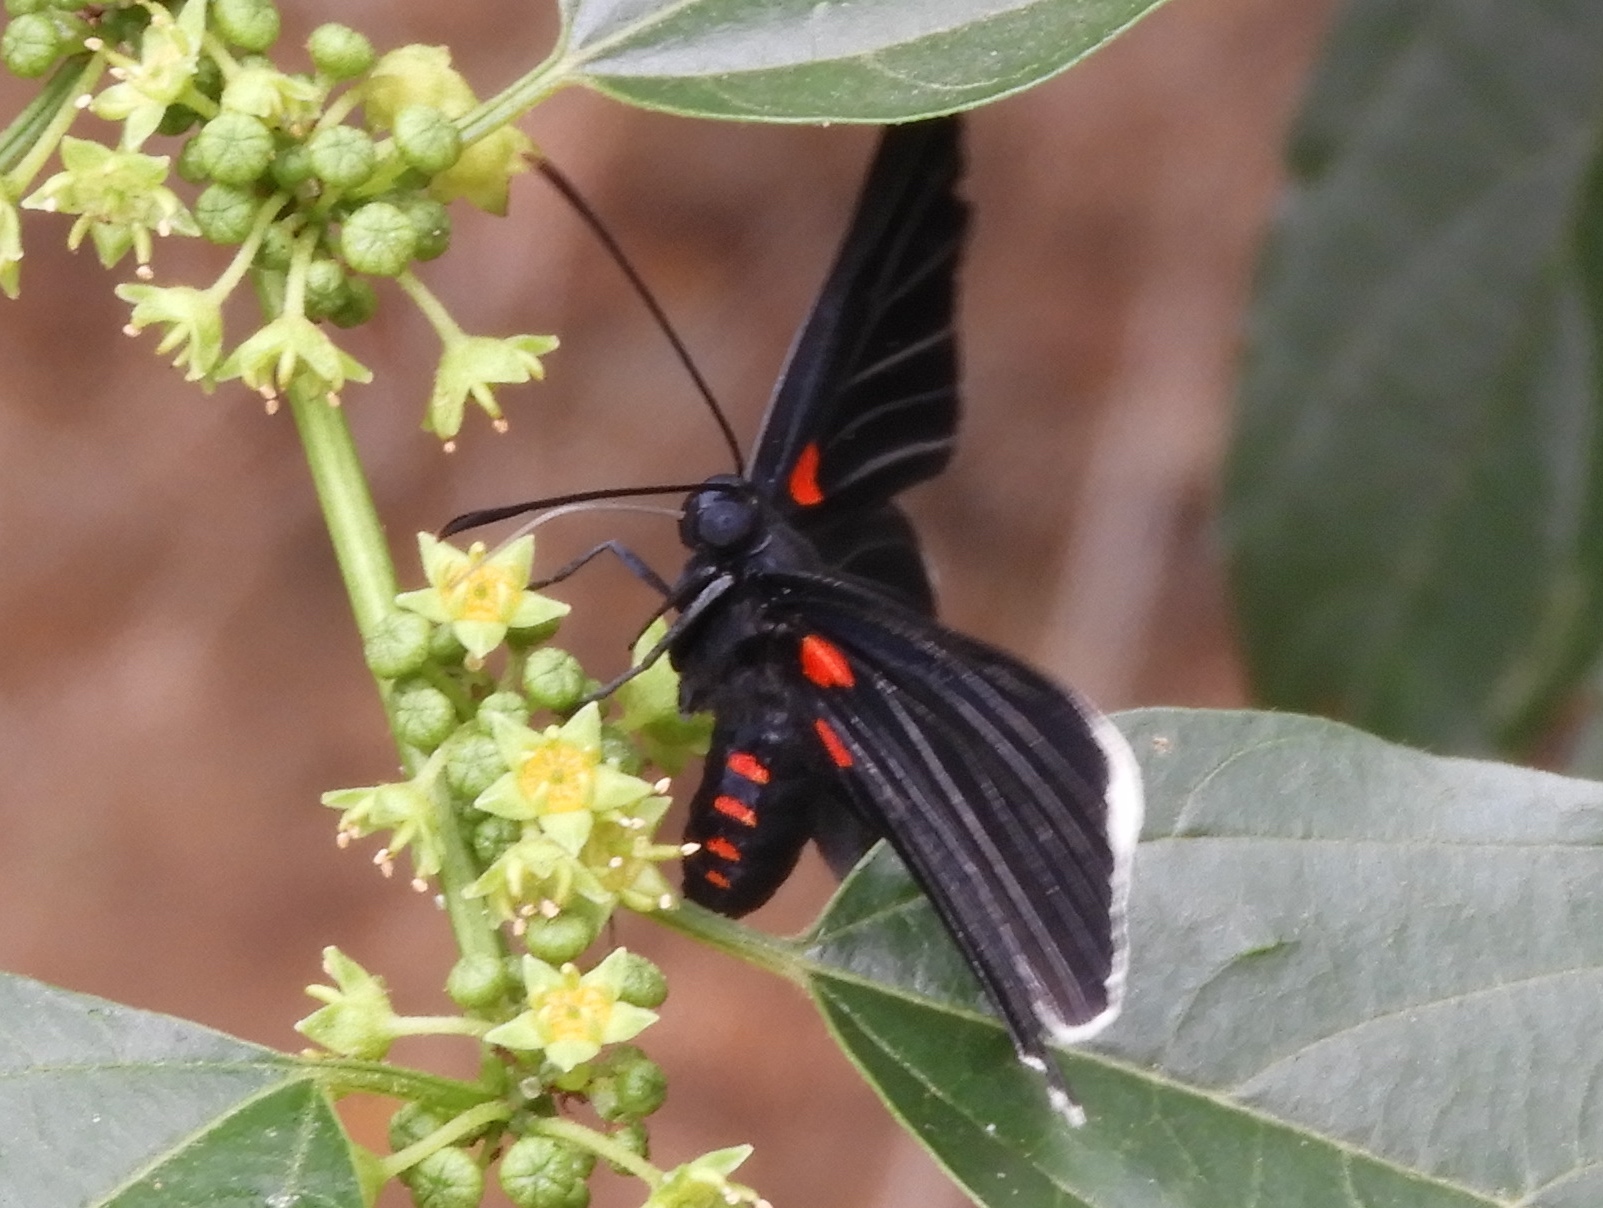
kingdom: Animalia
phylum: Arthropoda
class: Insecta
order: Lepidoptera
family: Lycaenidae
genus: Melanis
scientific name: Melanis
